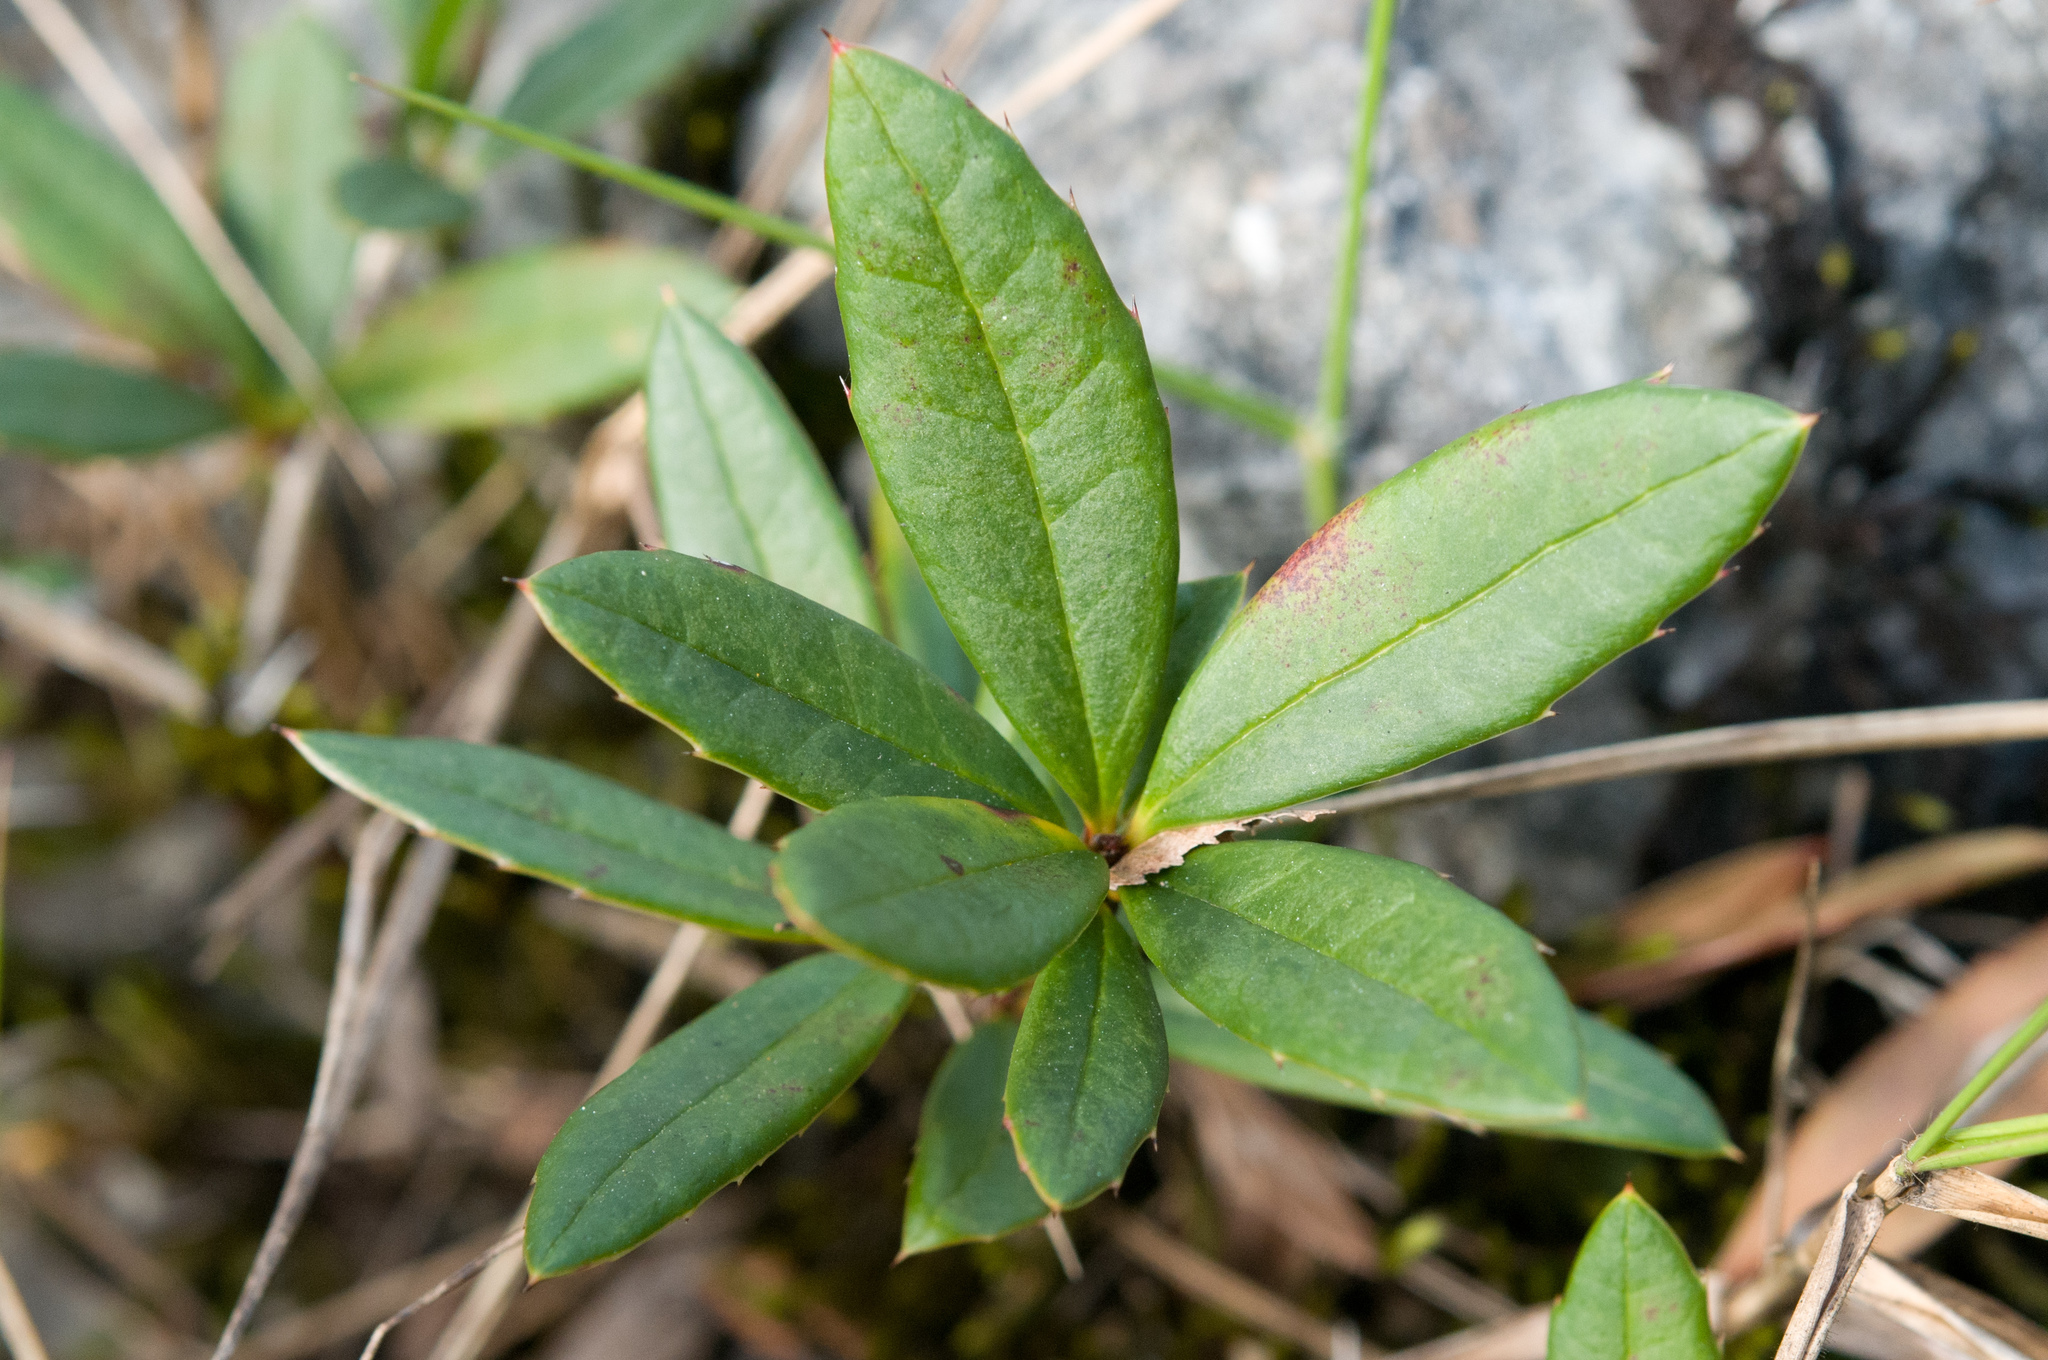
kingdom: Plantae
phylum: Tracheophyta
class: Magnoliopsida
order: Ranunculales
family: Berberidaceae
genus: Berberis
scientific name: Berberis tarokoensis
